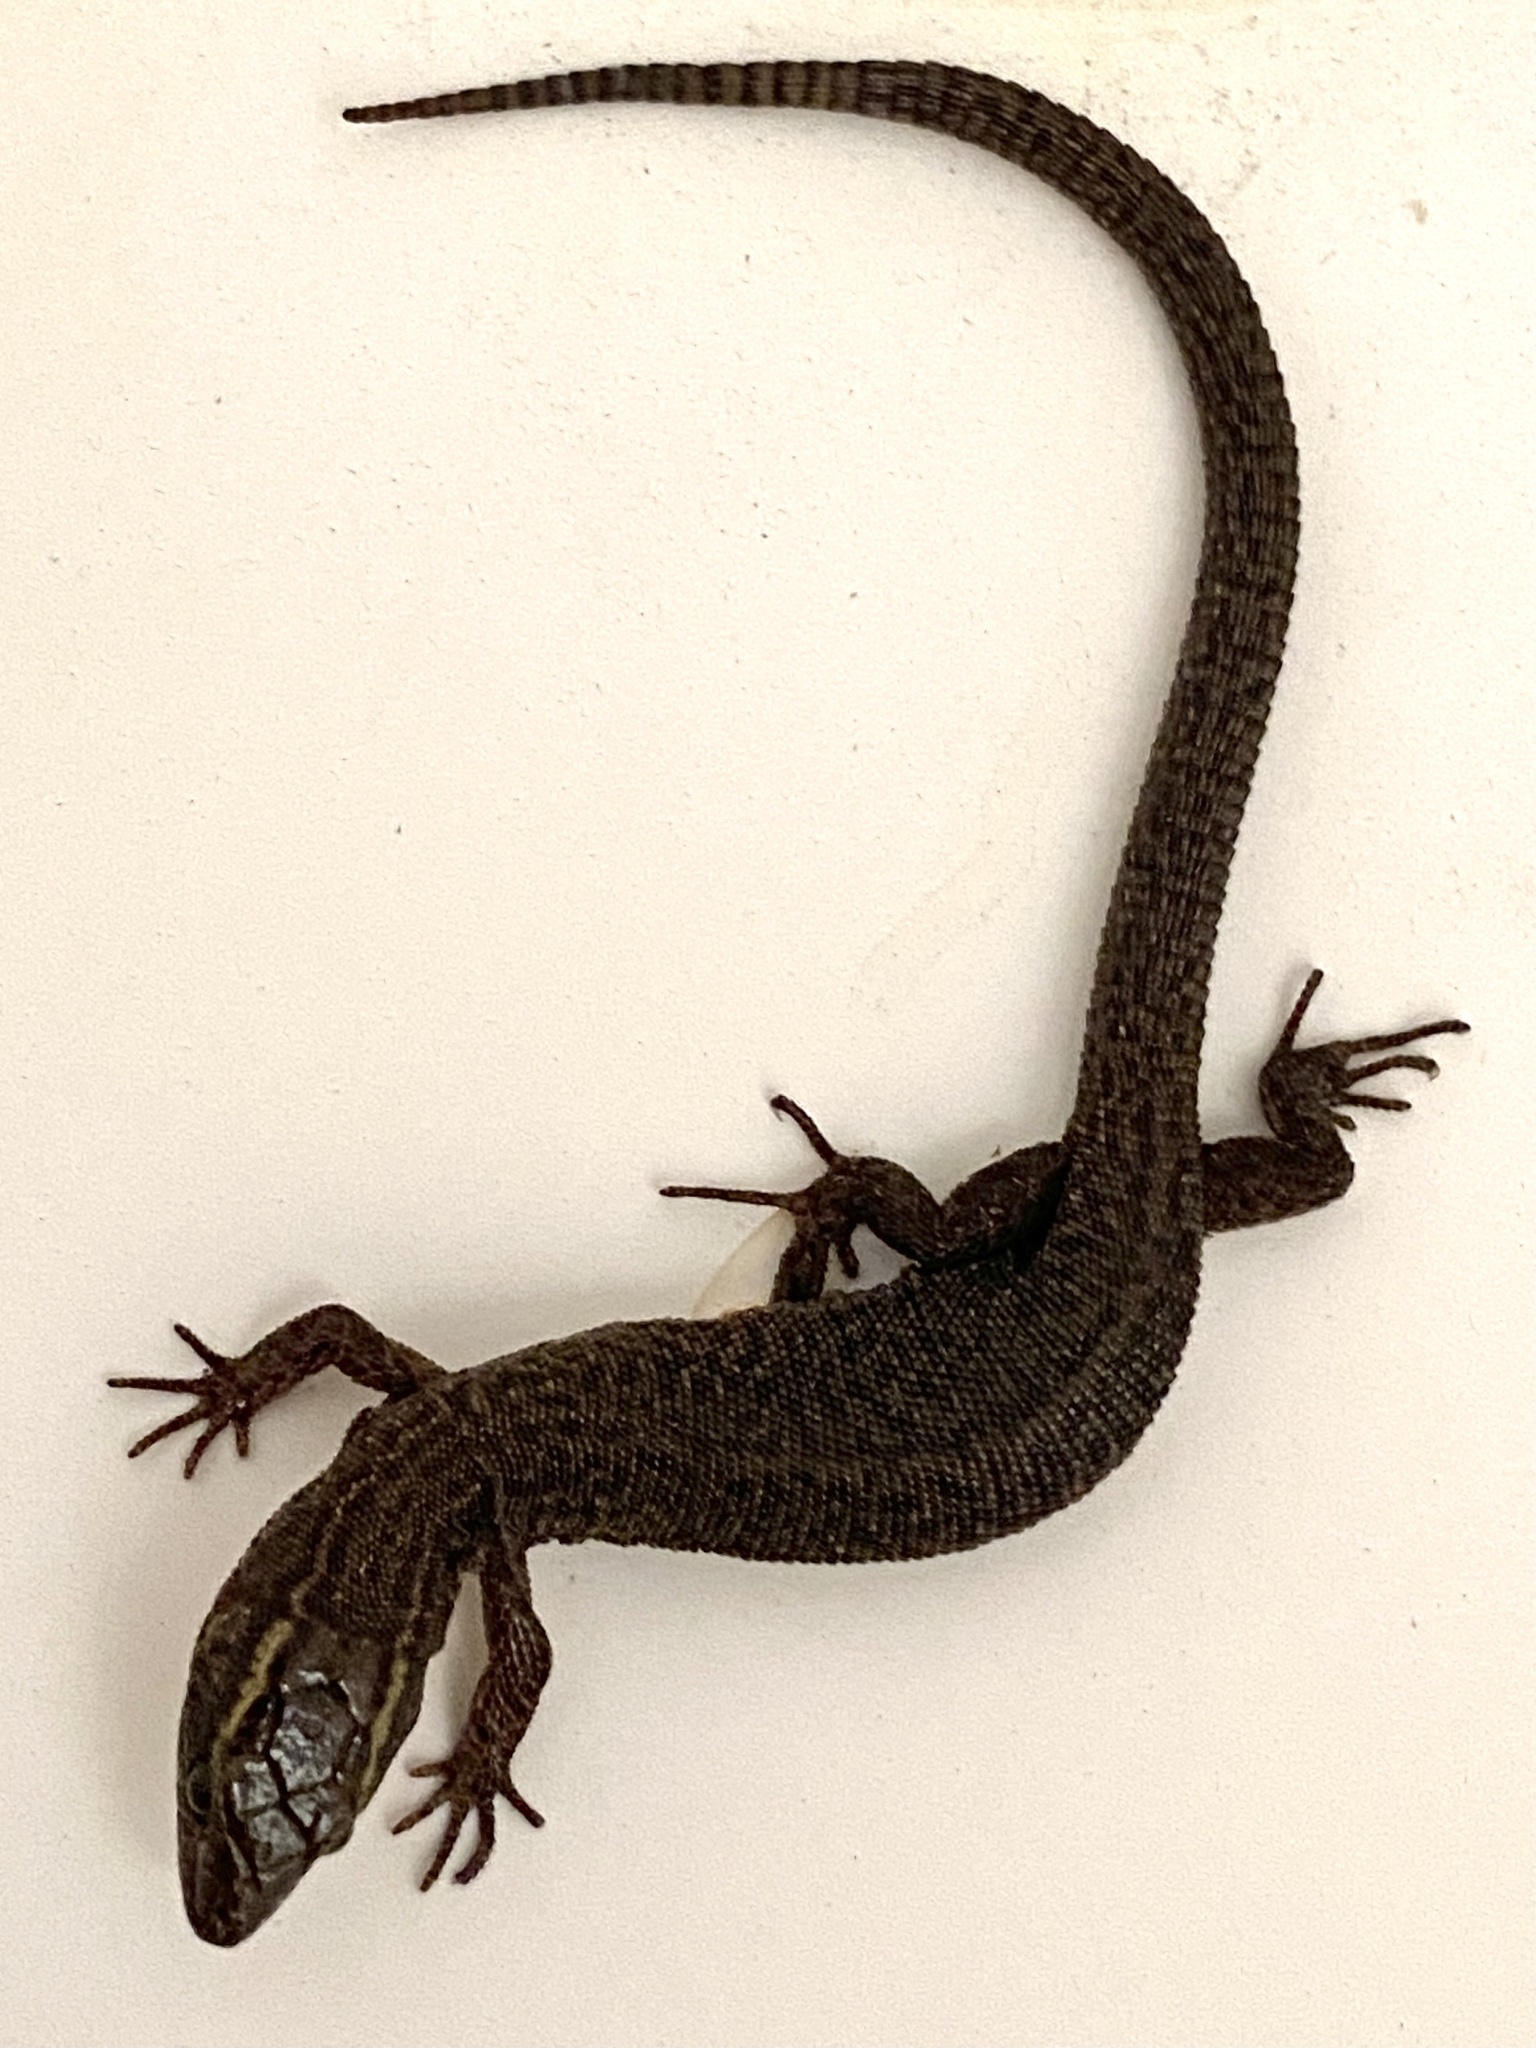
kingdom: Animalia
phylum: Chordata
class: Squamata
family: Xantusiidae
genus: Xantusia
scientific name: Xantusia vigilis
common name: Desert night lizard
